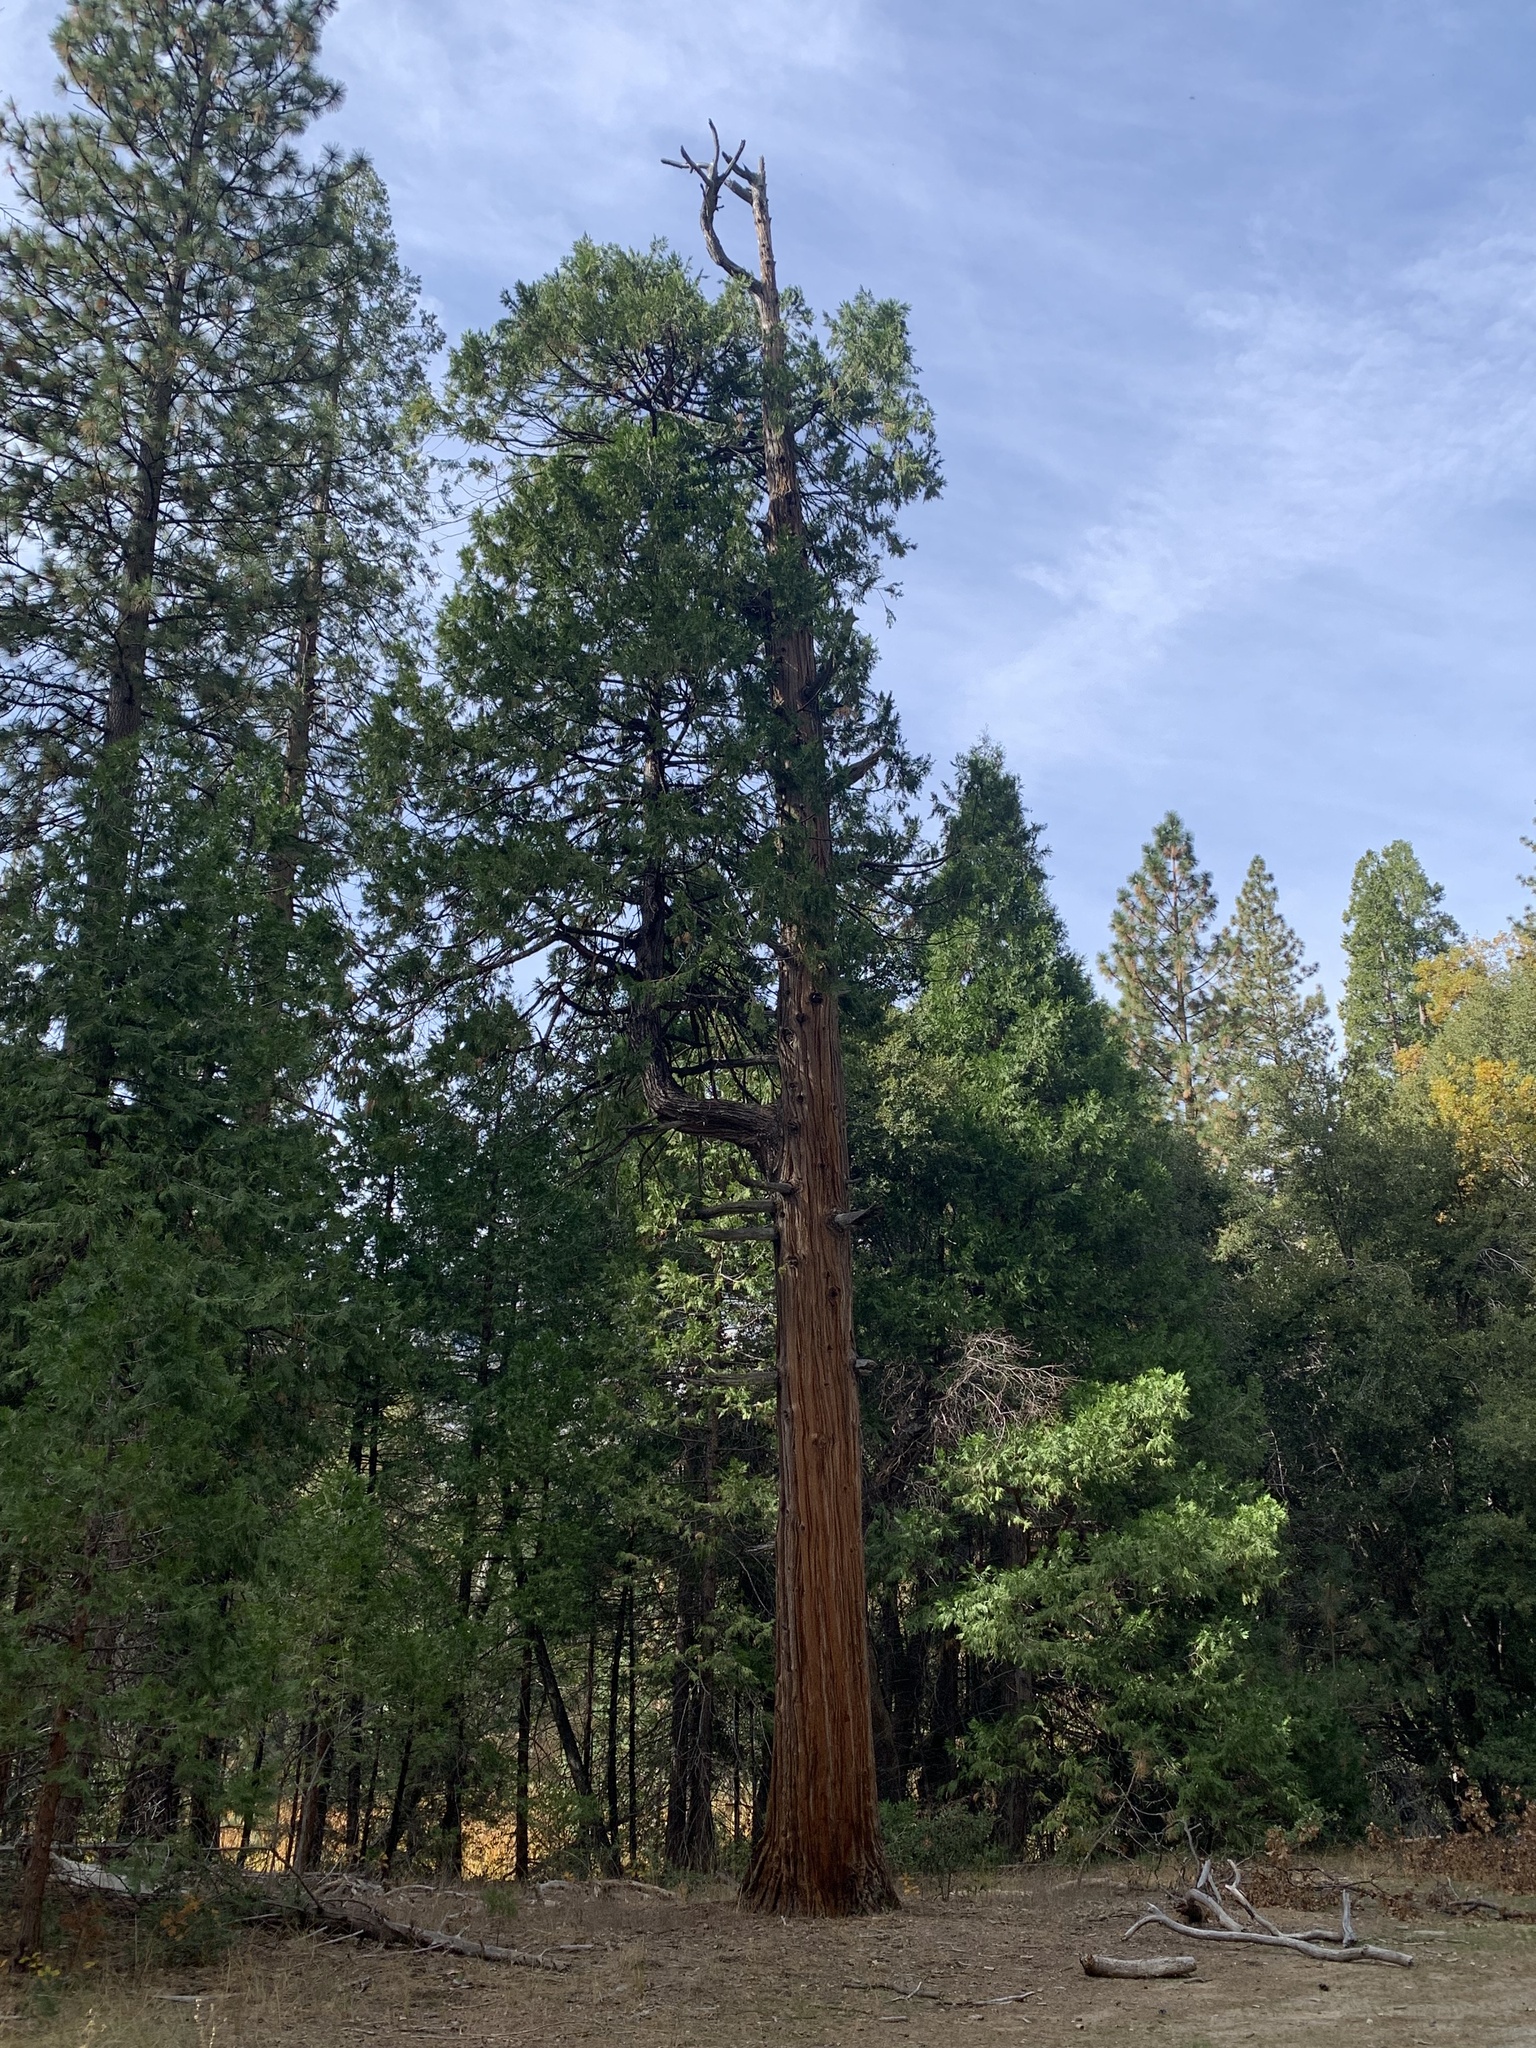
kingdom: Plantae
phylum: Tracheophyta
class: Pinopsida
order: Pinales
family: Cupressaceae
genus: Calocedrus
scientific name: Calocedrus decurrens
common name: Californian incense-cedar
